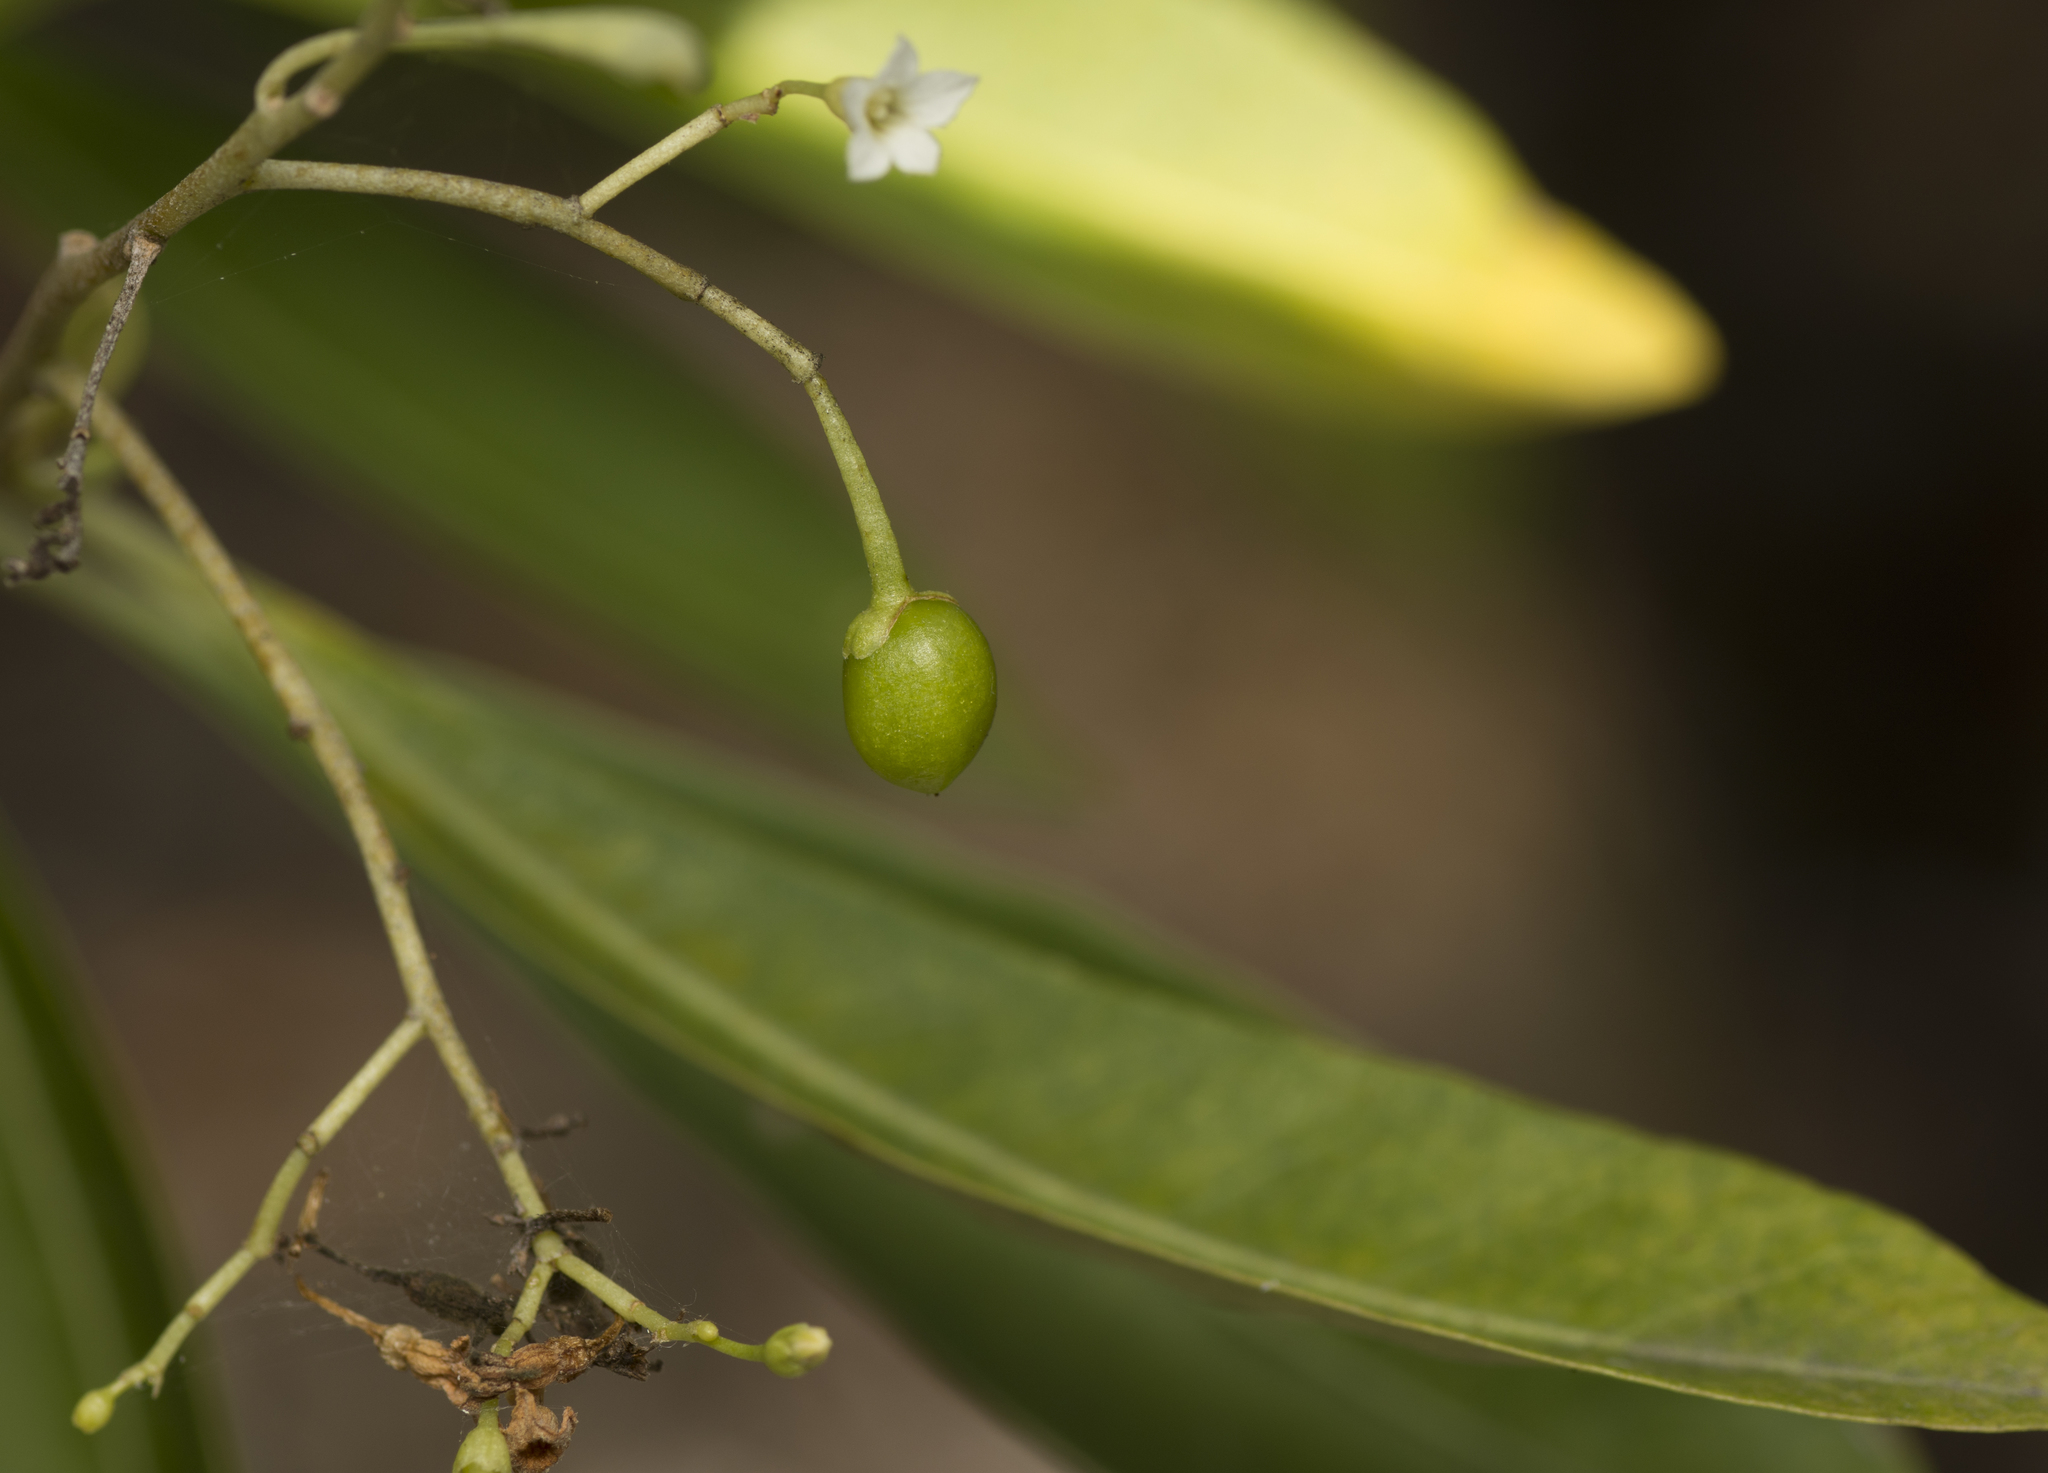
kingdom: Plantae
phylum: Tracheophyta
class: Magnoliopsida
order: Solanales
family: Solanaceae
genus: Duboisia
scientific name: Duboisia myoporoides
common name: Corkwoodtree
